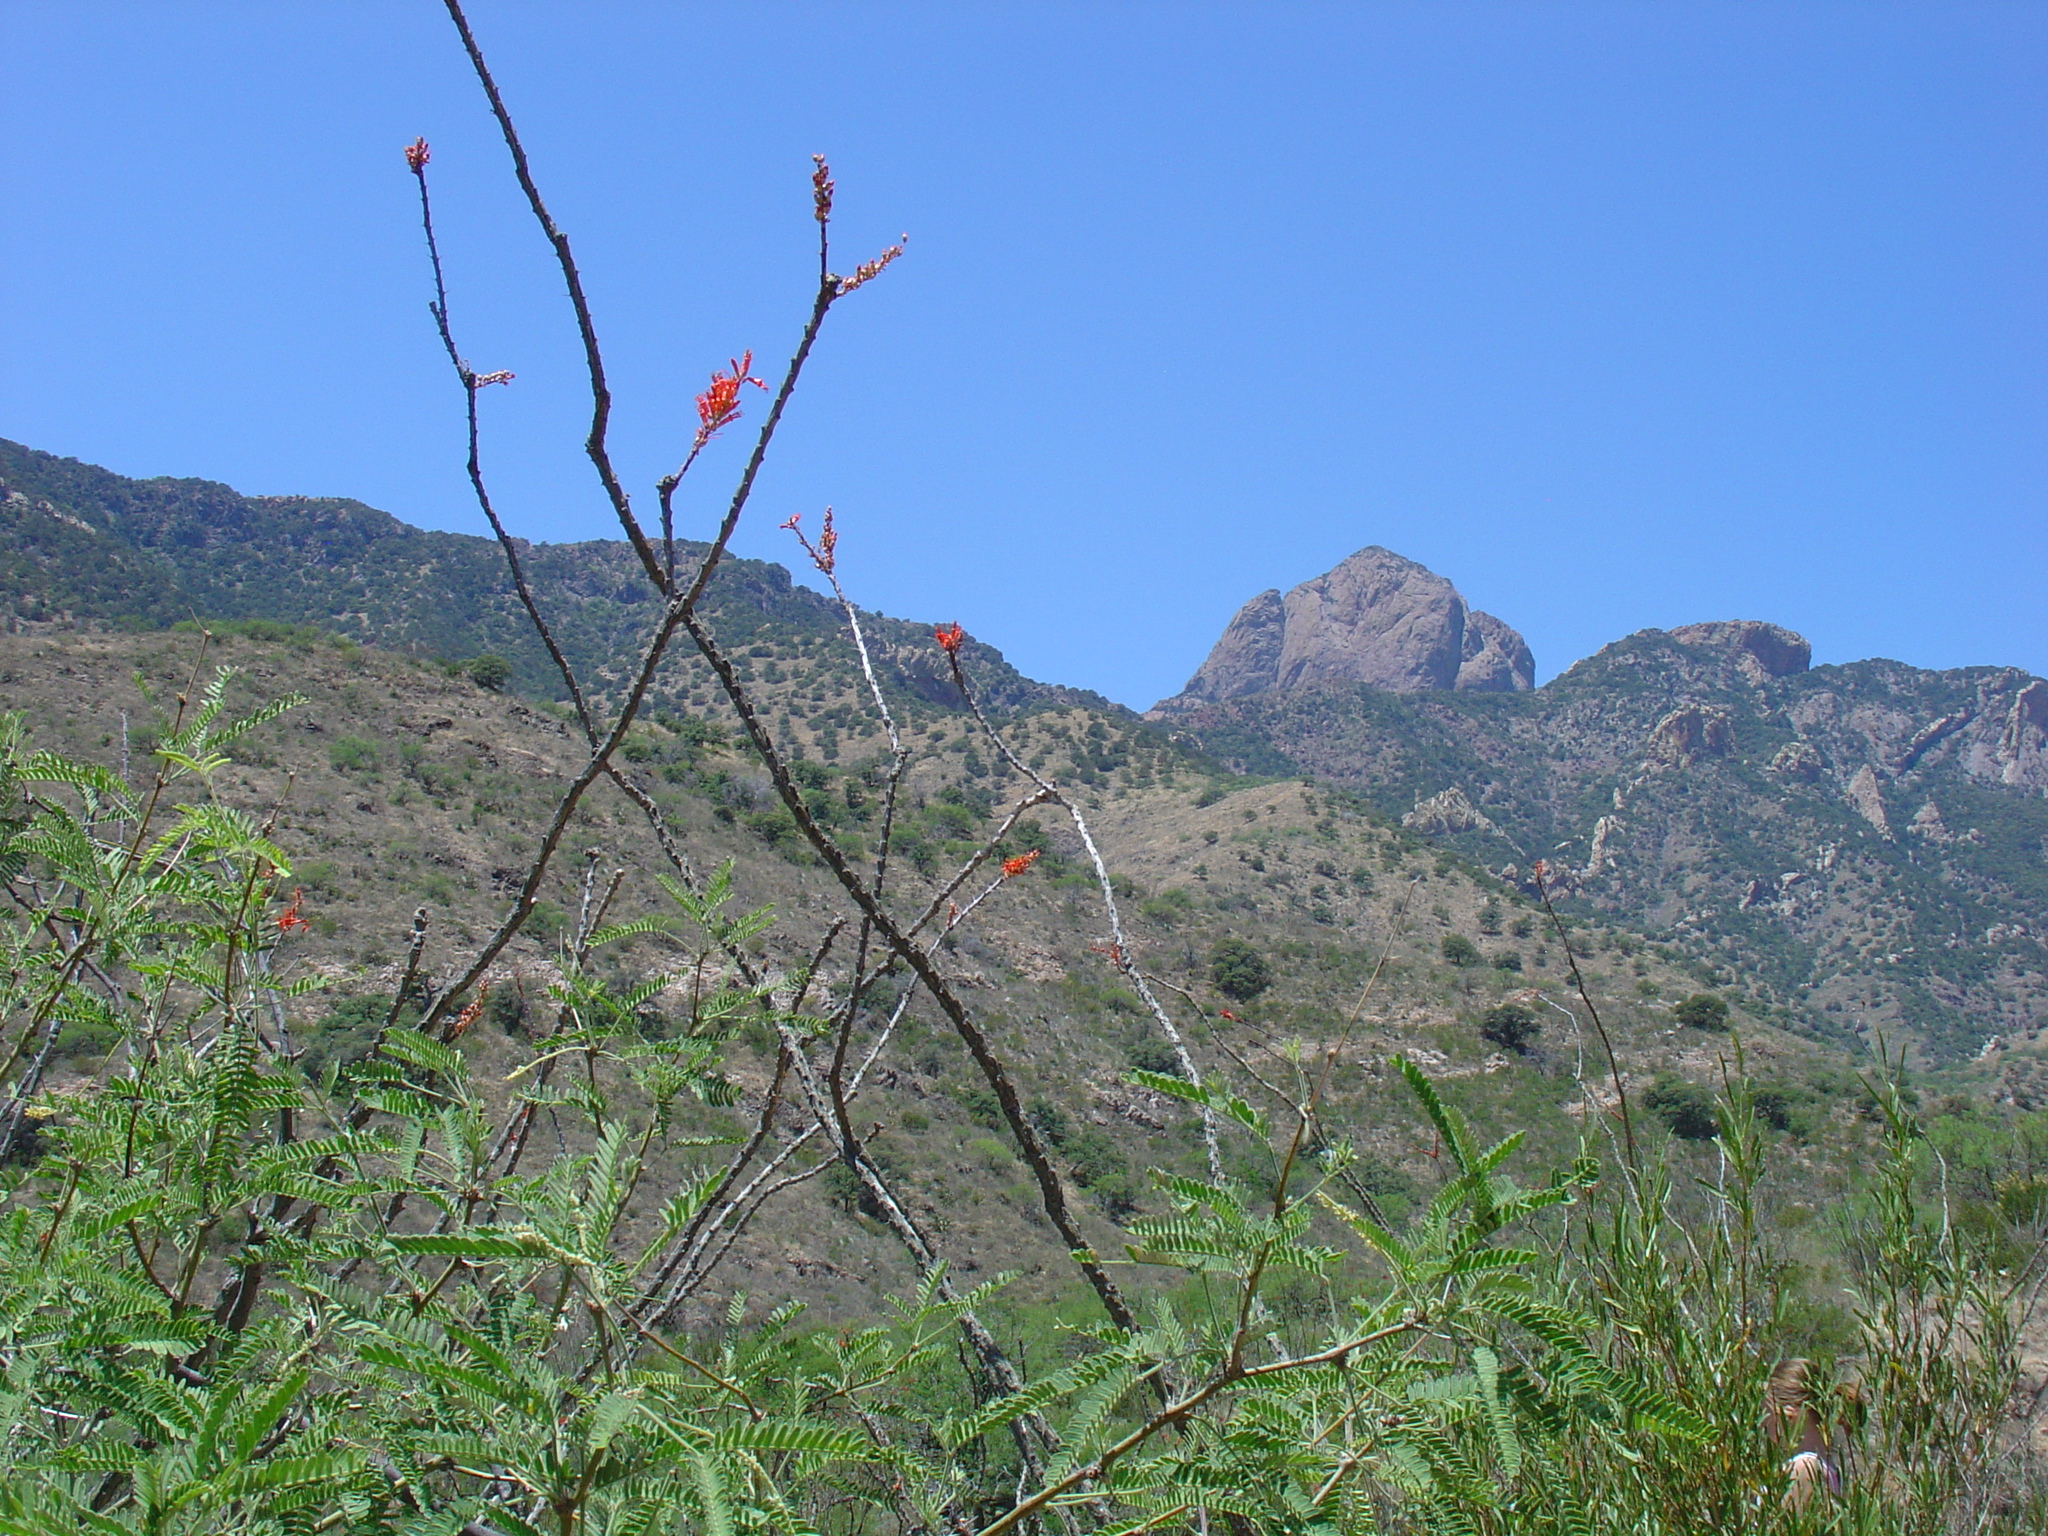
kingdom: Plantae
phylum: Tracheophyta
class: Magnoliopsida
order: Ericales
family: Fouquieriaceae
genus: Fouquieria
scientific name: Fouquieria splendens
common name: Vine-cactus
